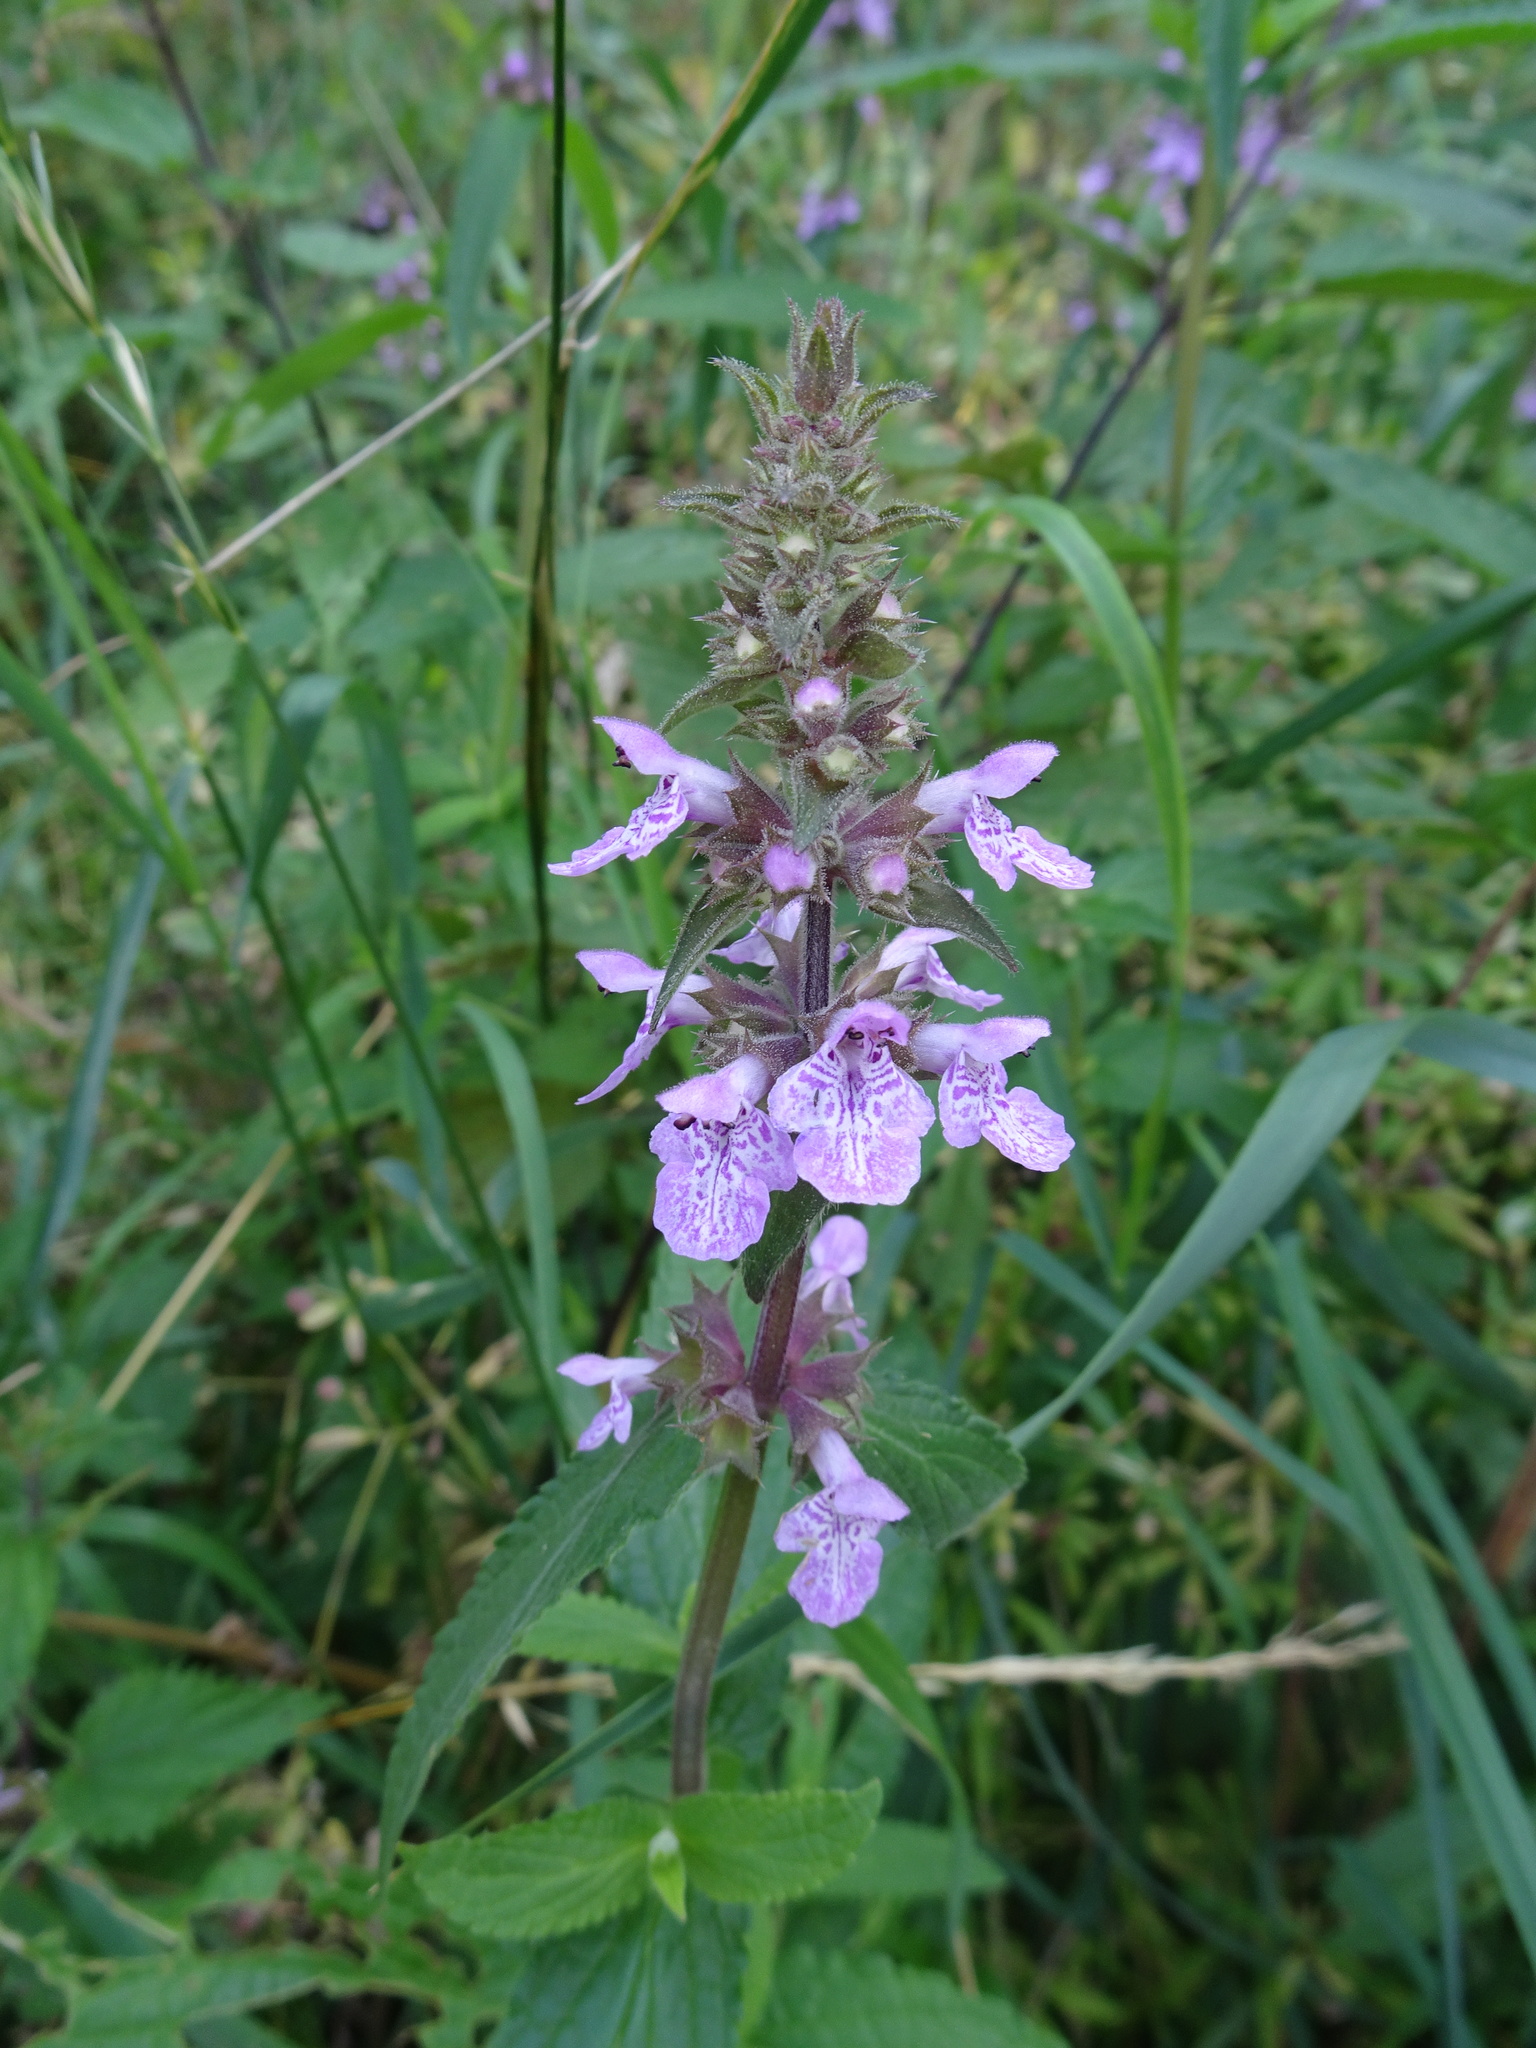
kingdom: Plantae
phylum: Tracheophyta
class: Magnoliopsida
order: Lamiales
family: Lamiaceae
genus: Stachys
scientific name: Stachys palustris
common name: Marsh woundwort
